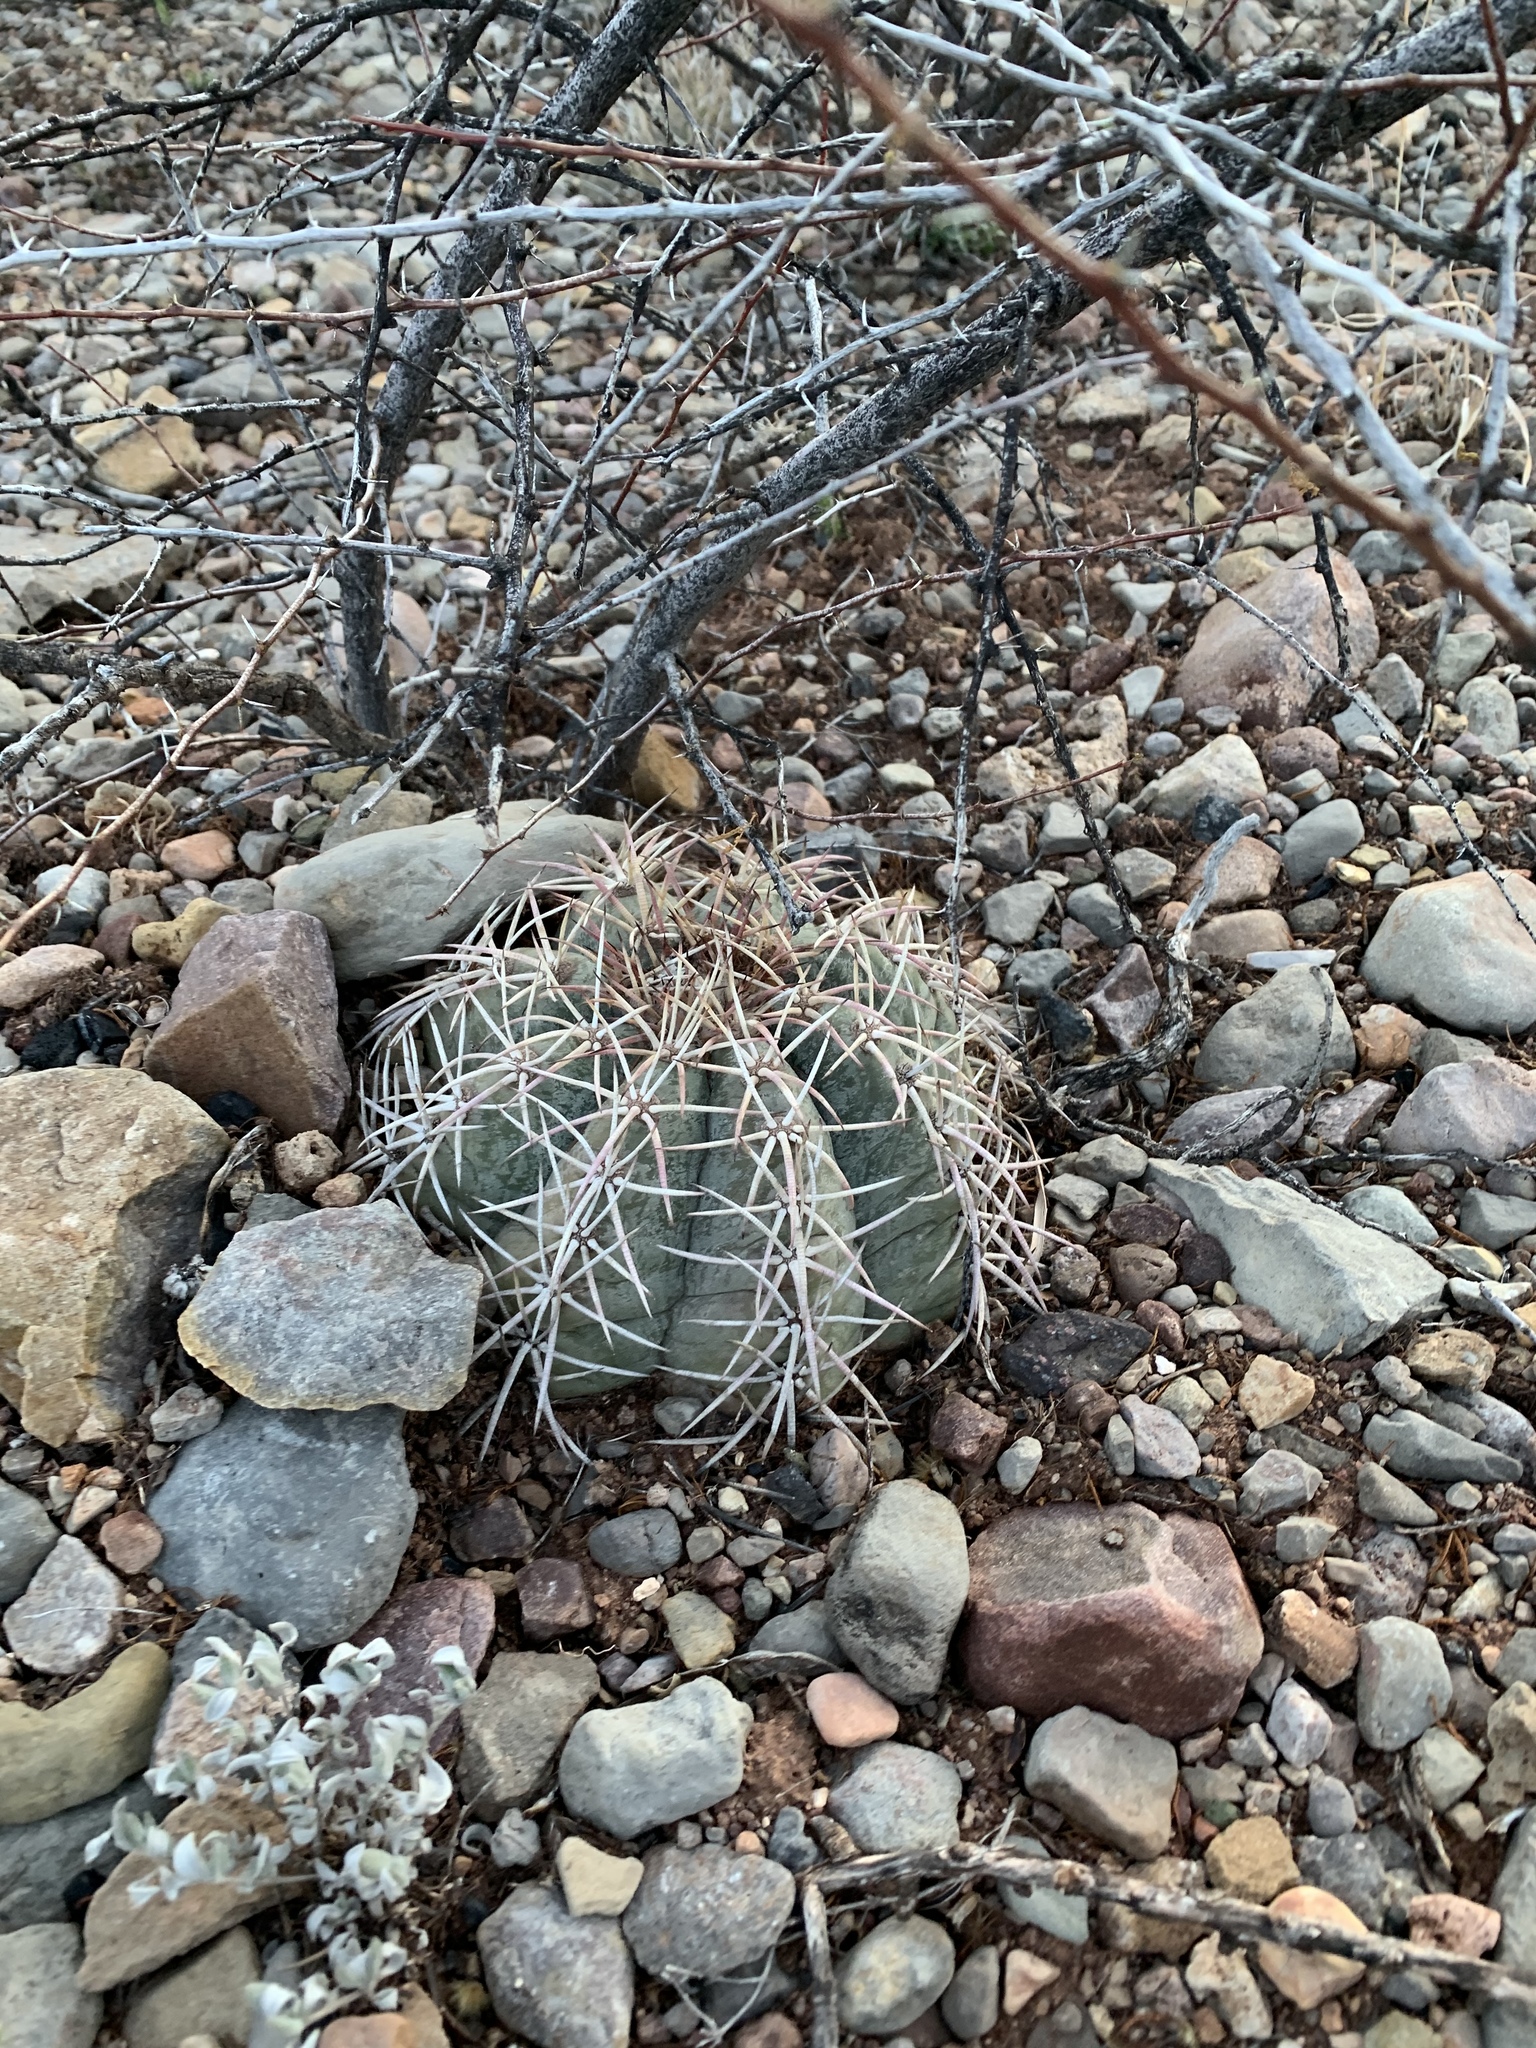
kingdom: Plantae
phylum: Tracheophyta
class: Magnoliopsida
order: Caryophyllales
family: Cactaceae
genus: Echinocactus
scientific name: Echinocactus horizonthalonius
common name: Devilshead
